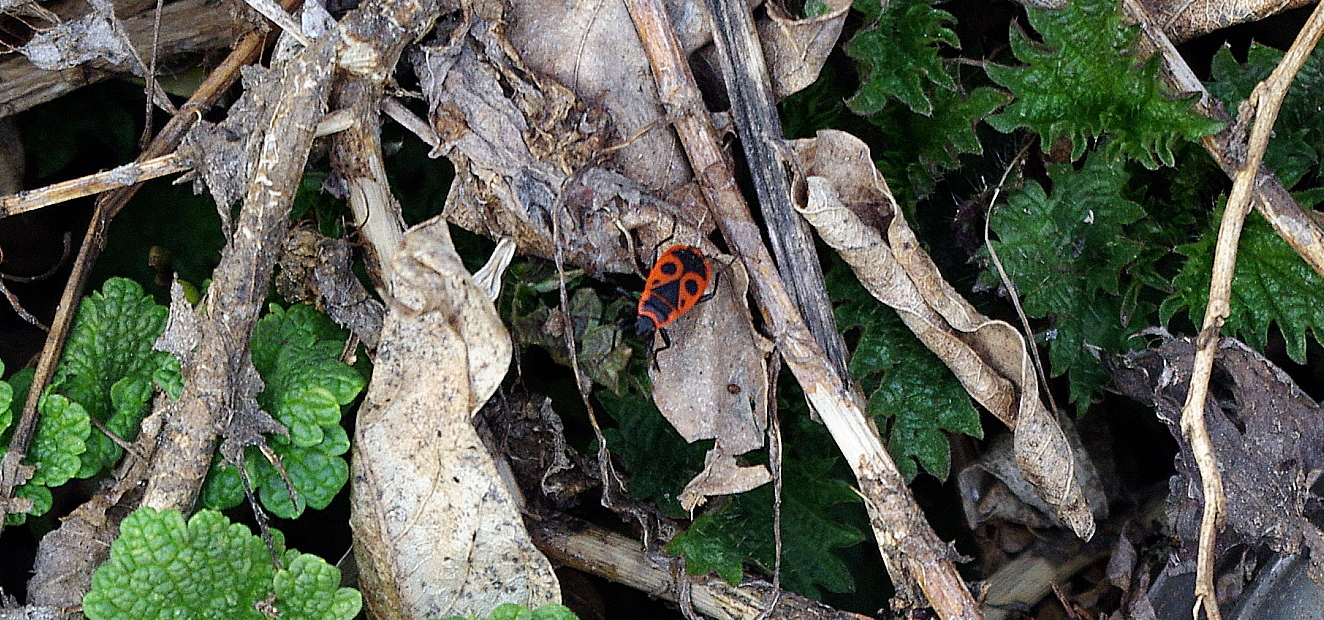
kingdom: Animalia
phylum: Arthropoda
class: Insecta
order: Hemiptera
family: Pyrrhocoridae
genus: Pyrrhocoris
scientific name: Pyrrhocoris apterus
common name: Firebug
